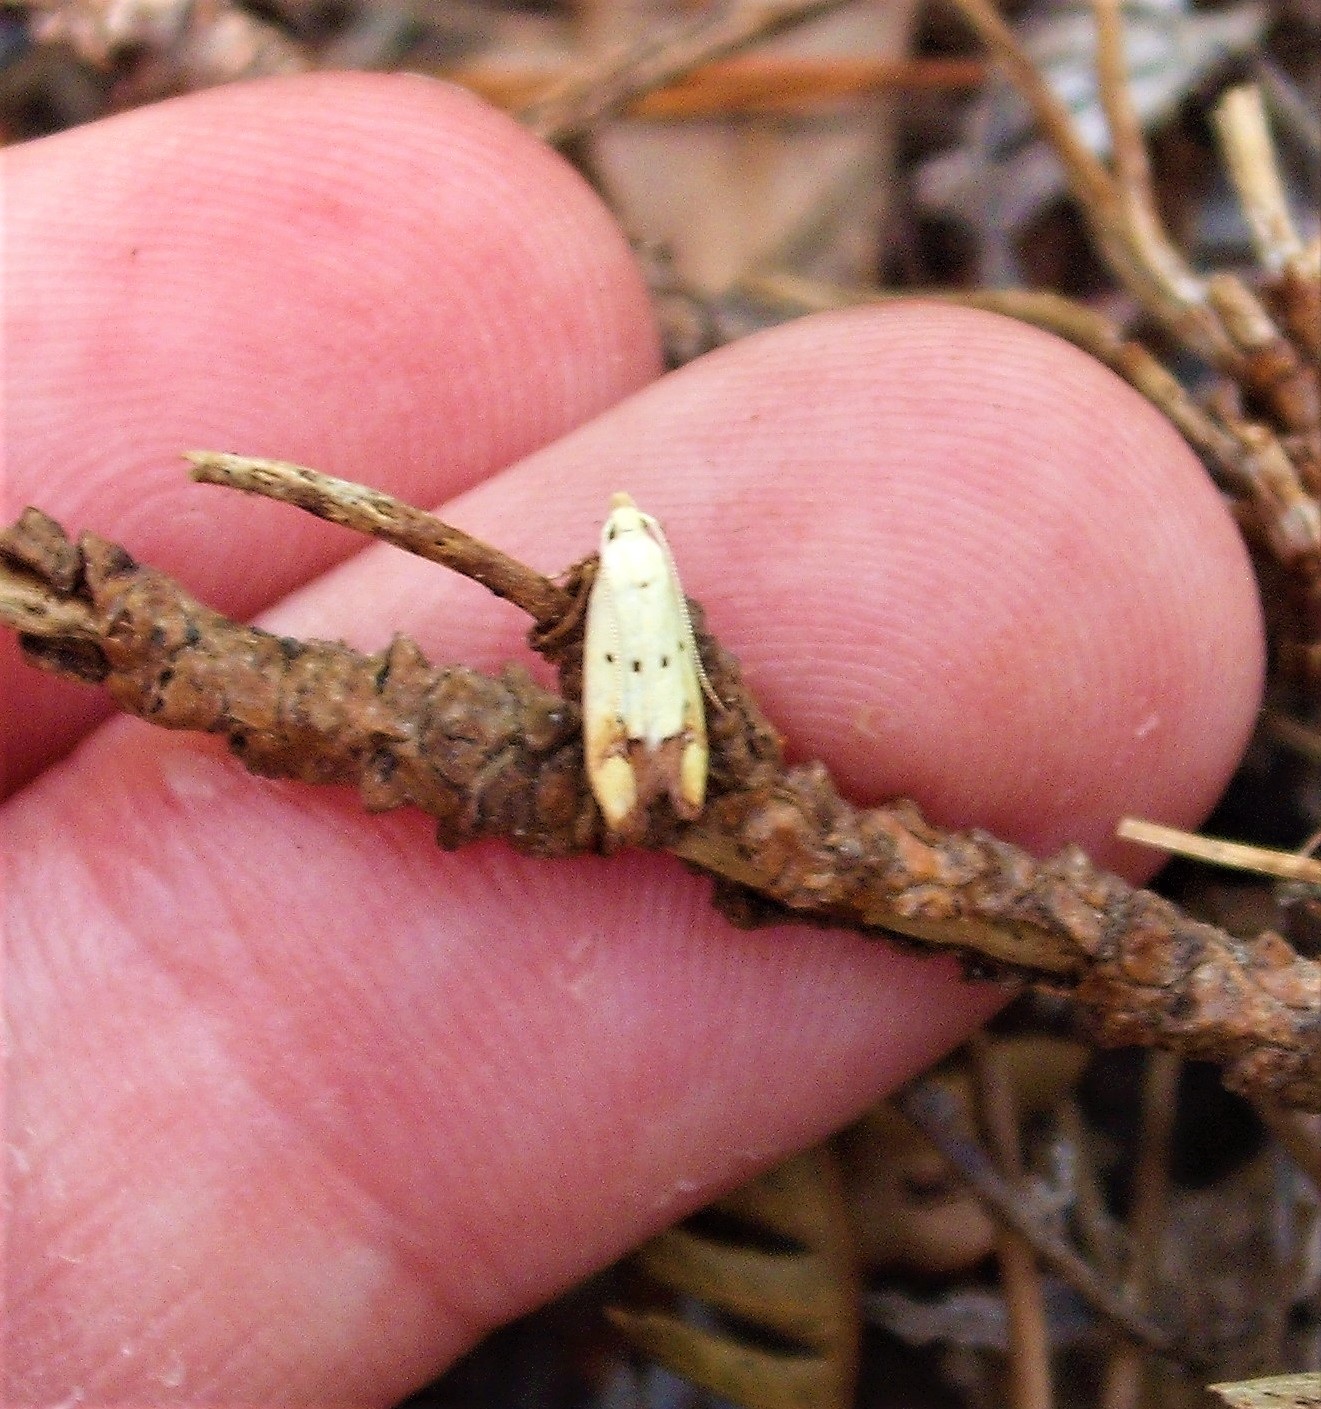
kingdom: Animalia
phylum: Arthropoda
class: Insecta
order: Lepidoptera
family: Oecophoridae
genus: Gymnobathra
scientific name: Gymnobathra flavidella
